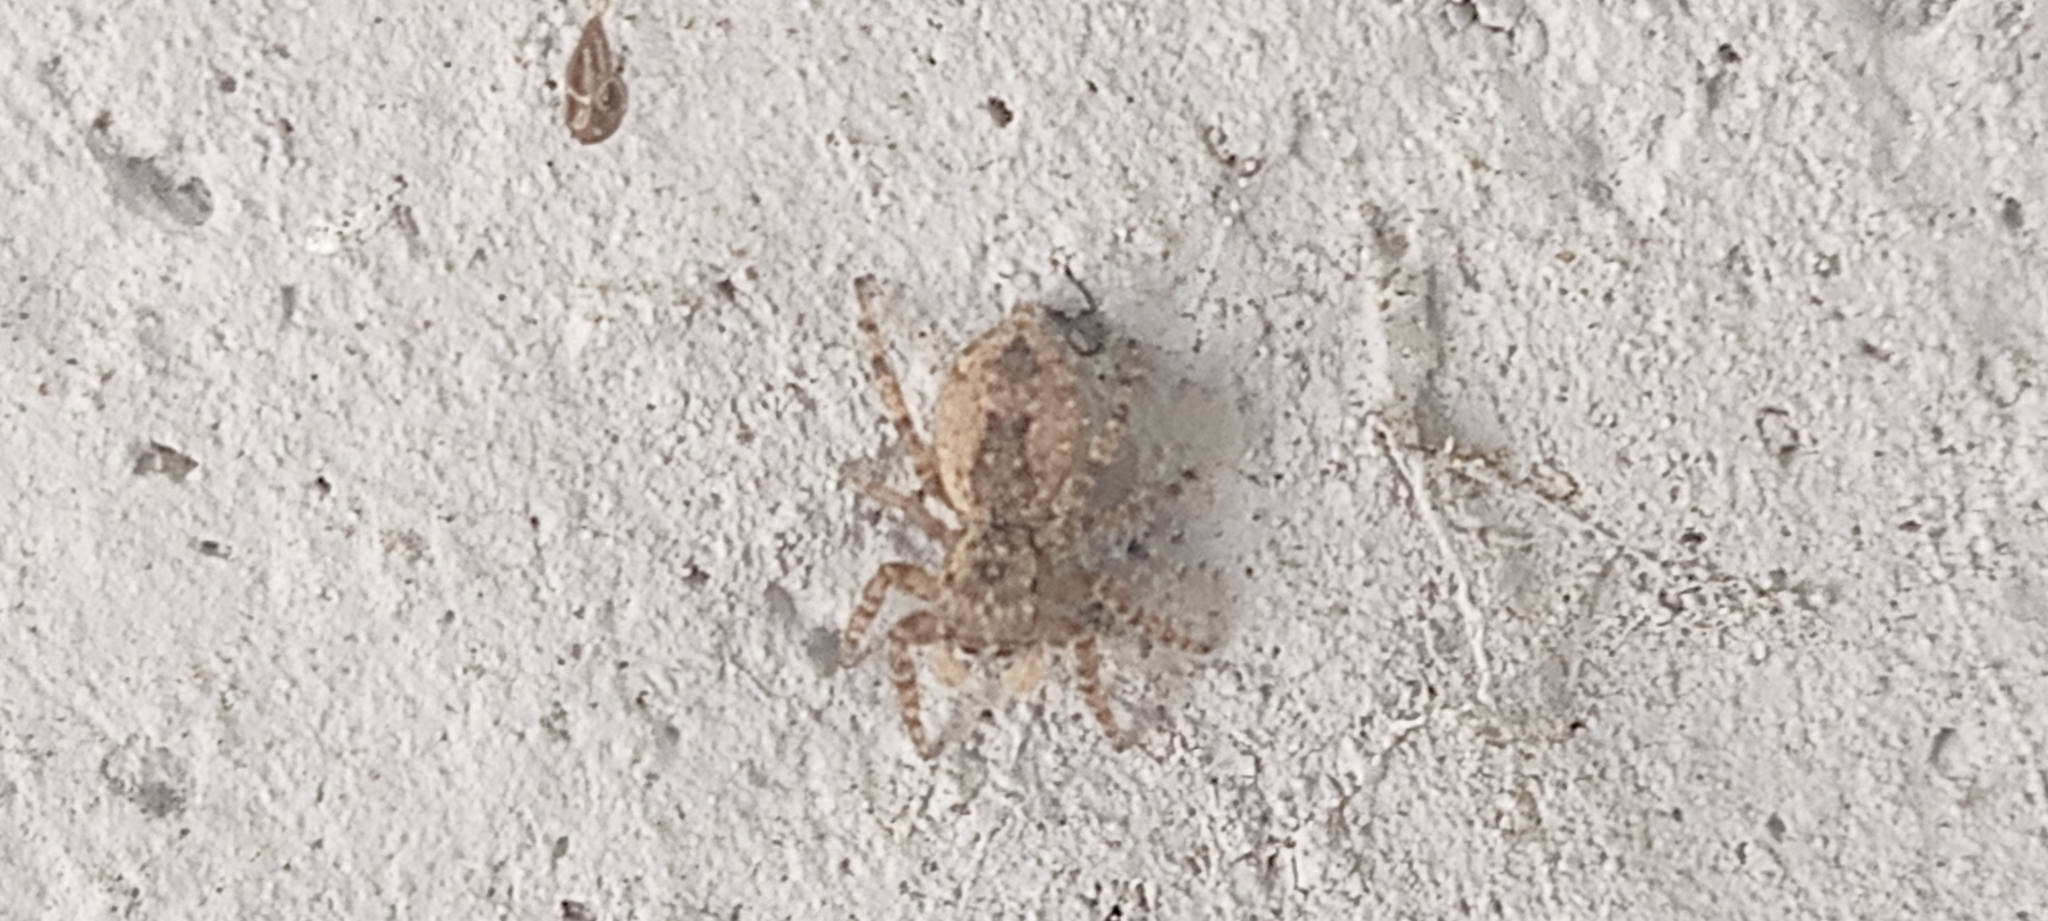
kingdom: Animalia
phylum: Arthropoda
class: Arachnida
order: Araneae
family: Salticidae
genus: Mexigonus
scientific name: Mexigonus minutus
